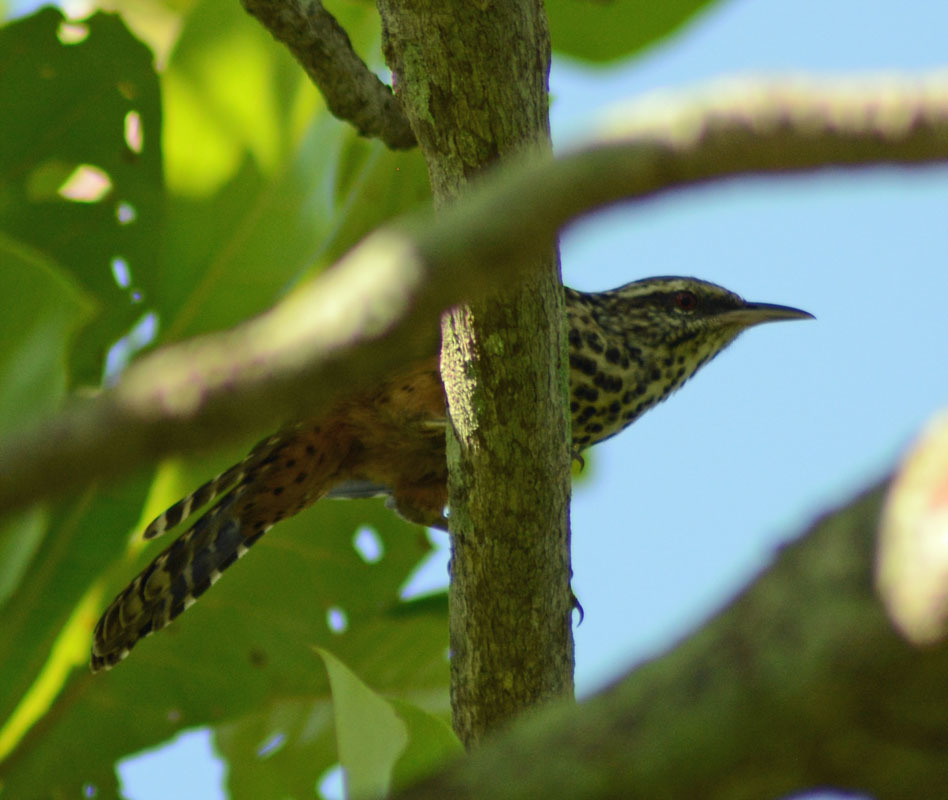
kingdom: Animalia
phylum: Chordata
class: Aves
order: Passeriformes
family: Troglodytidae
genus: Campylorhynchus
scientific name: Campylorhynchus zonatus
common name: Band-backed wren
